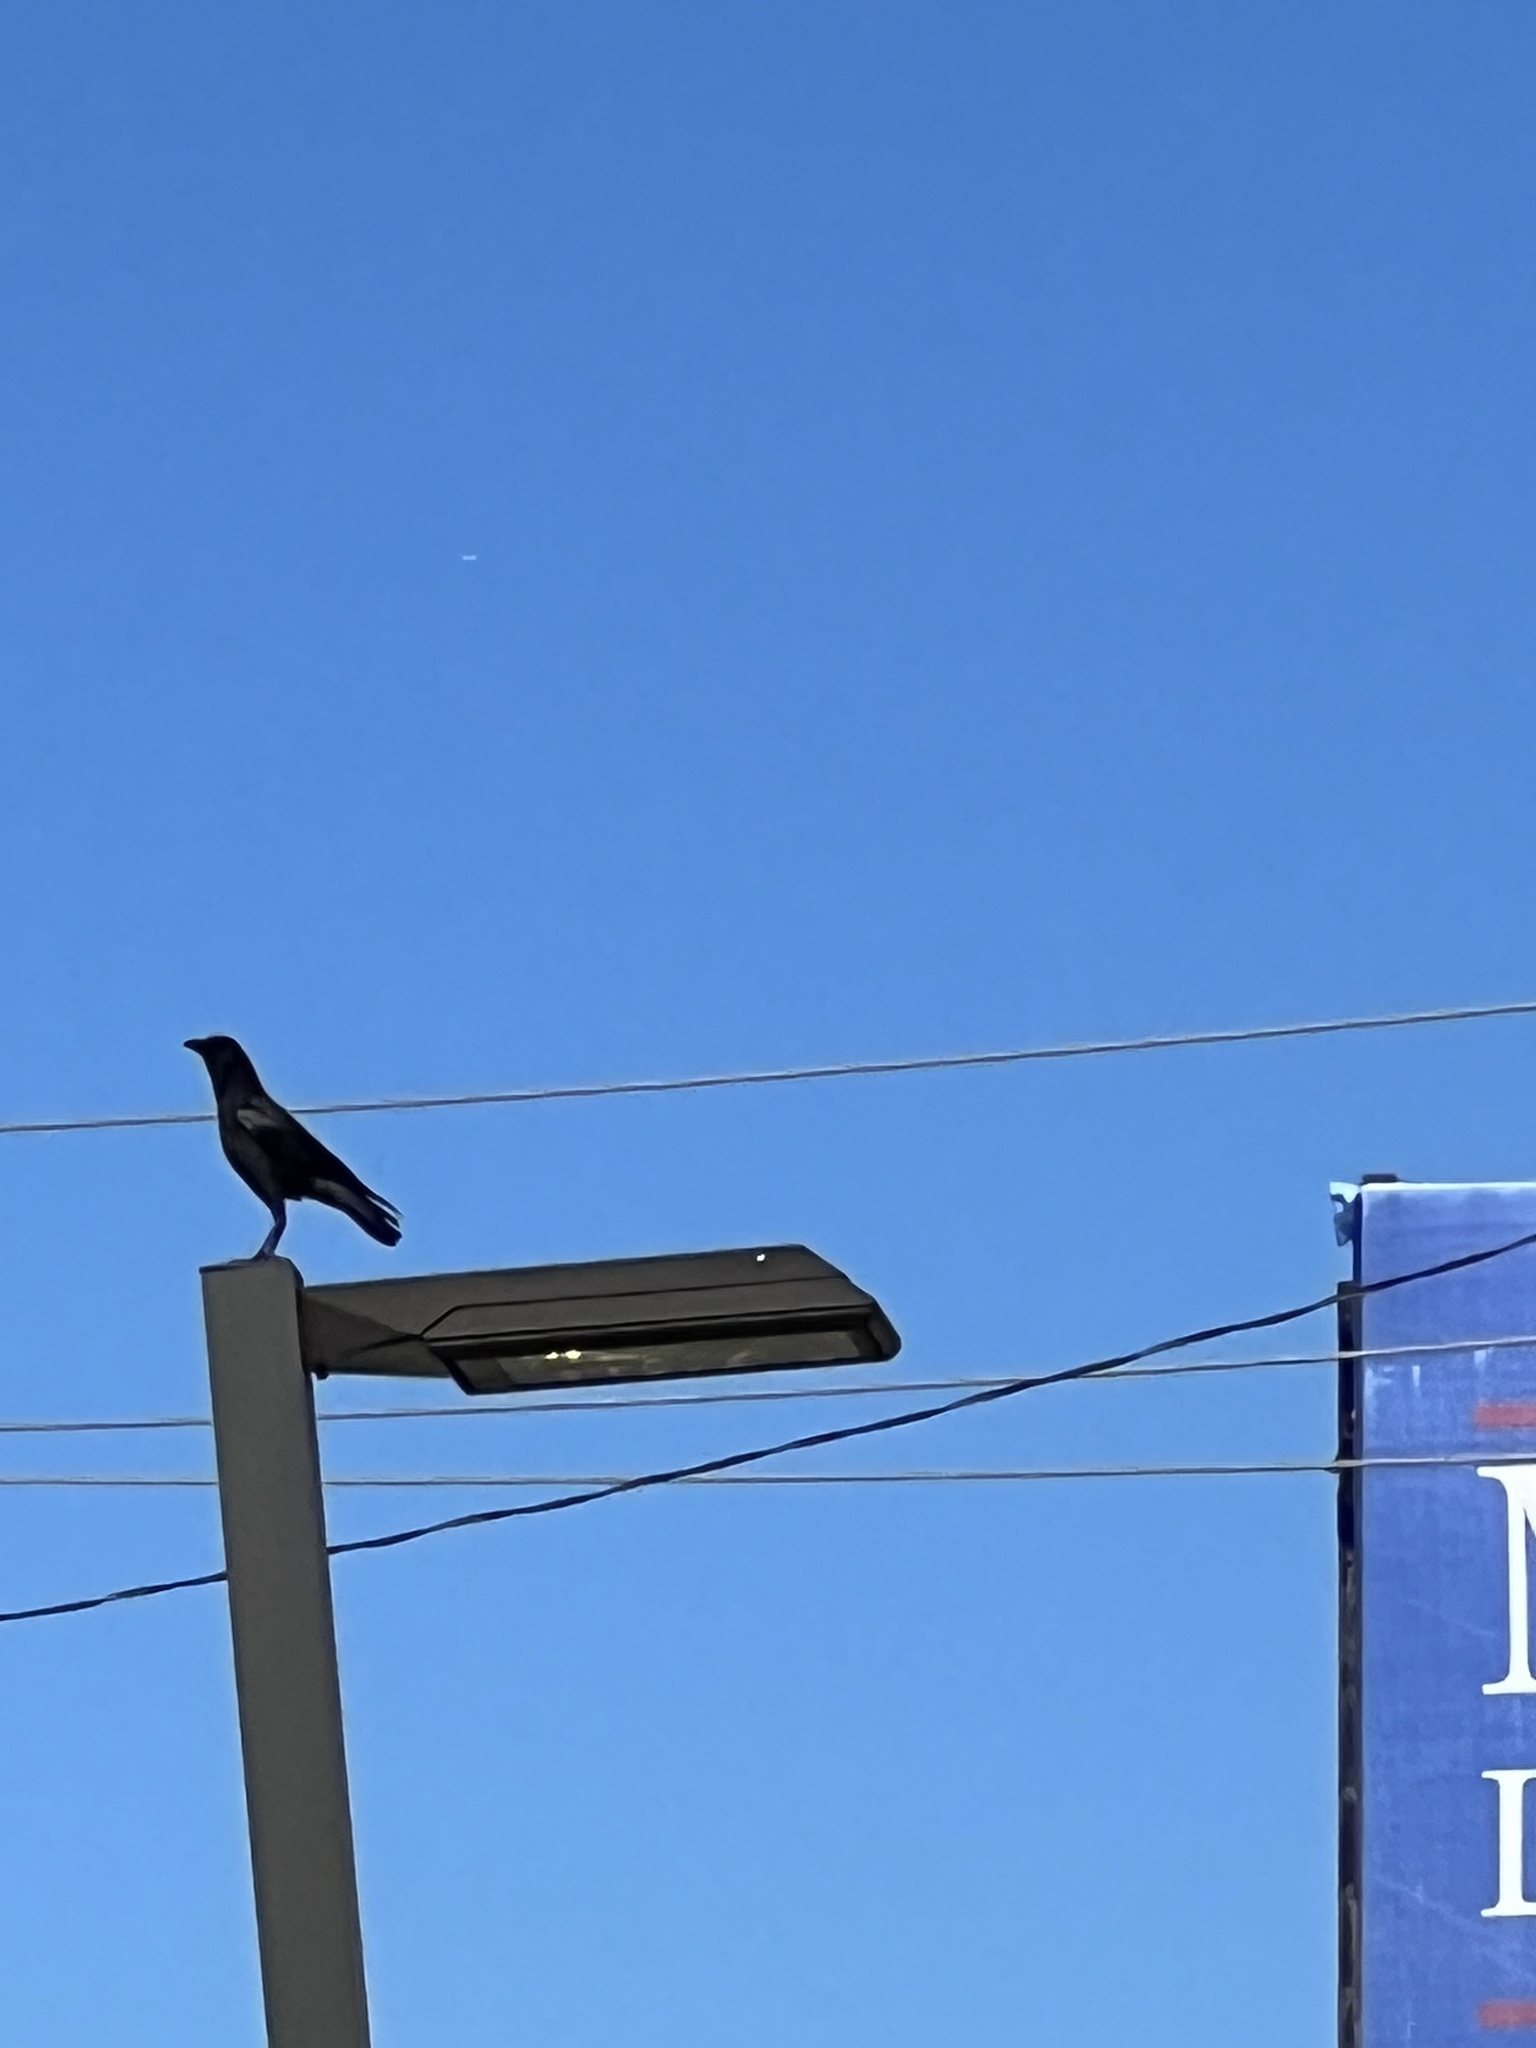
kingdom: Animalia
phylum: Chordata
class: Aves
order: Passeriformes
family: Corvidae
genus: Corvus
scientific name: Corvus brachyrhynchos
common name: American crow
